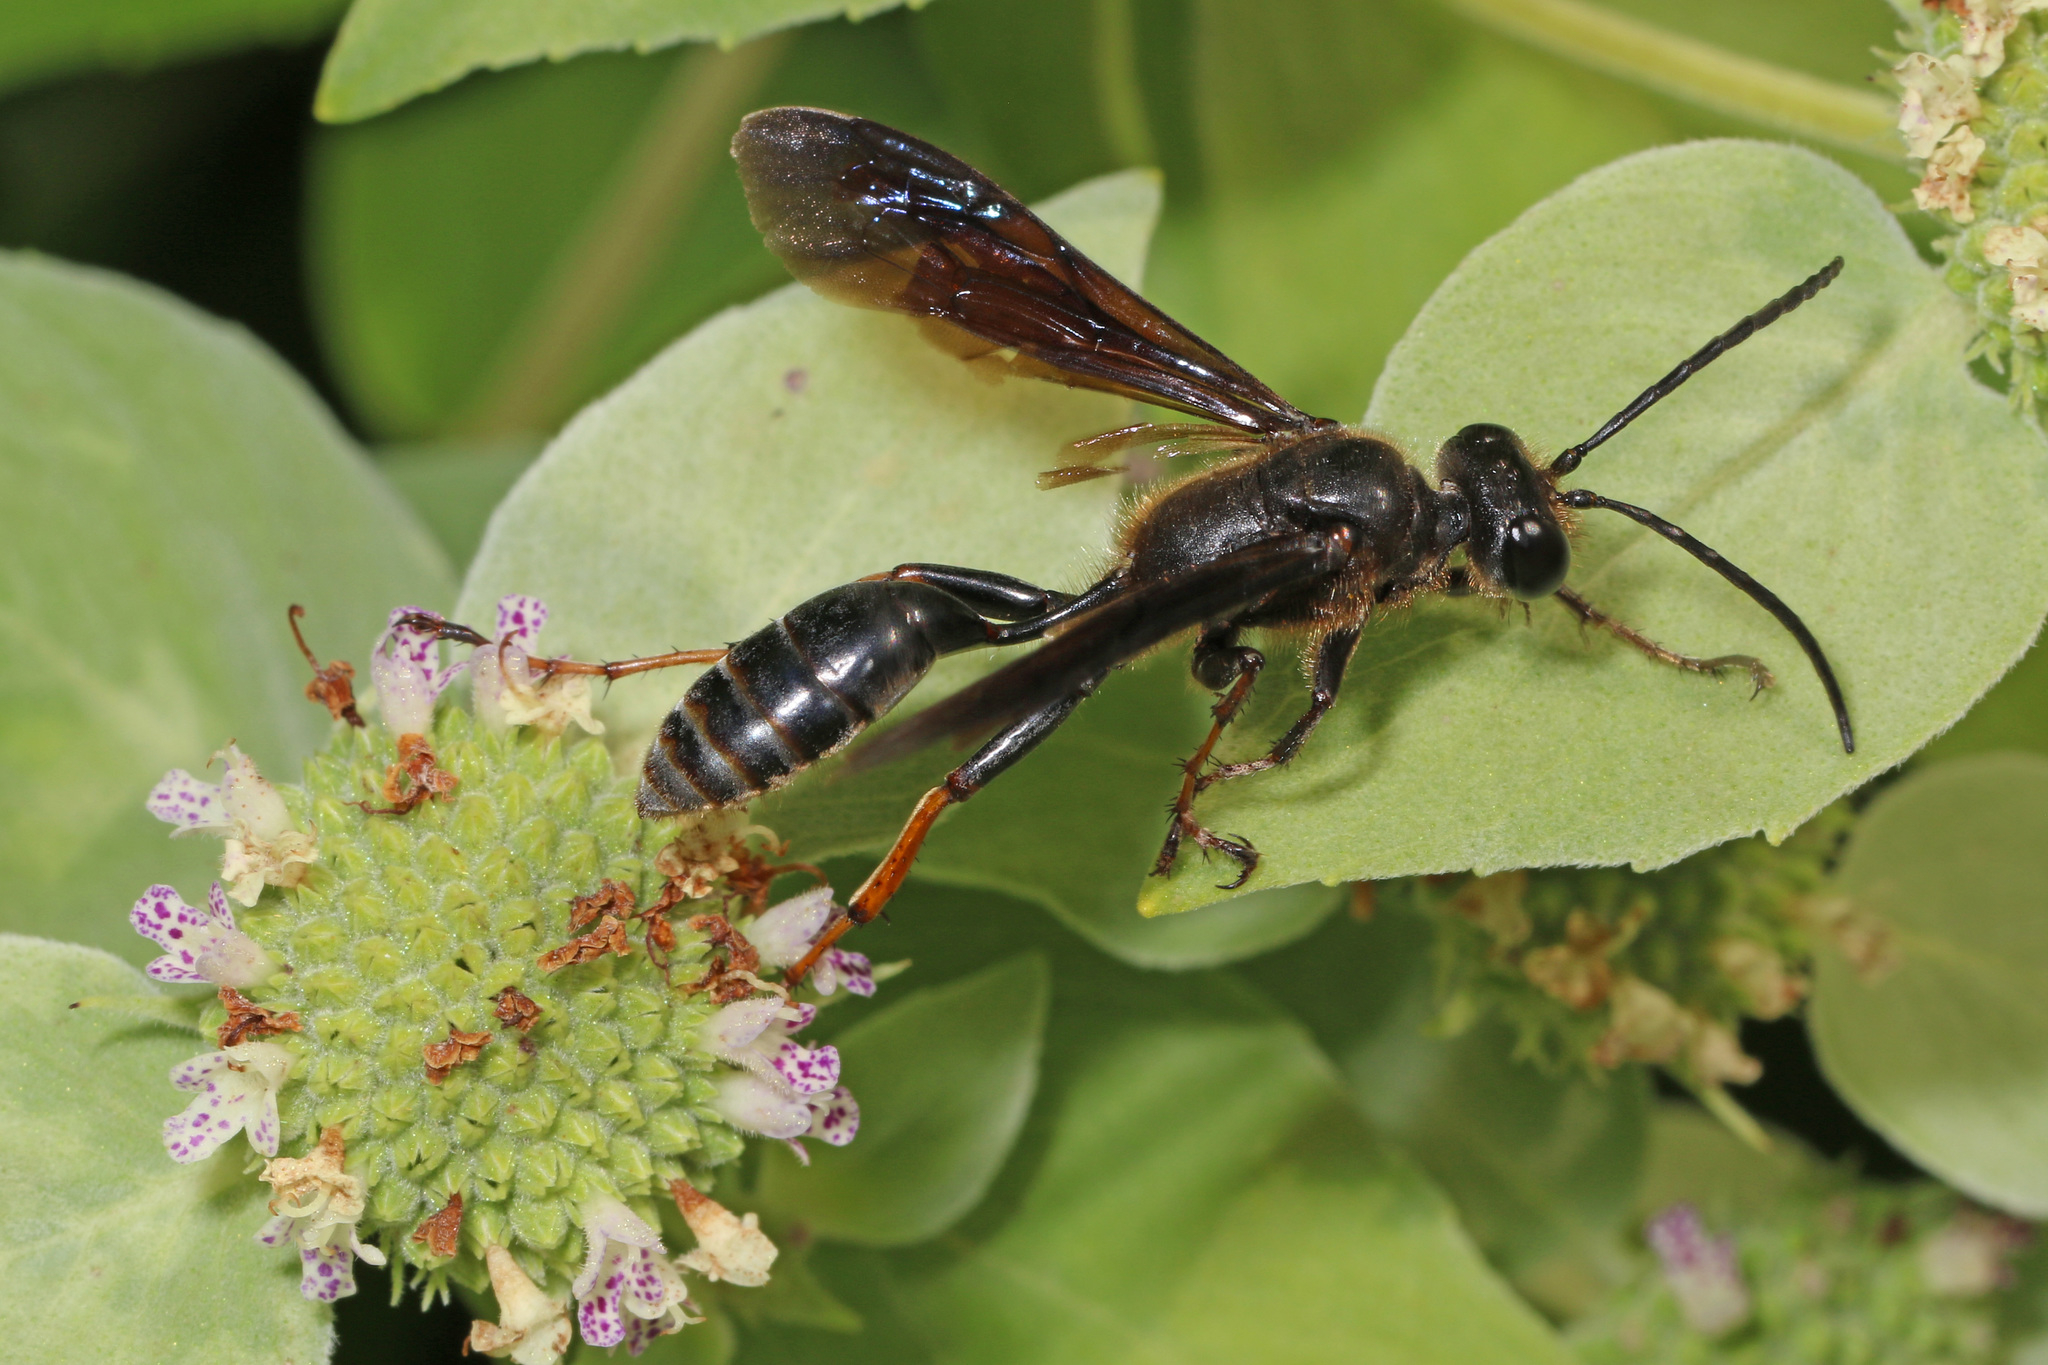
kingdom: Animalia
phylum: Arthropoda
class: Insecta
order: Hymenoptera
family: Sphecidae
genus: Isodontia
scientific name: Isodontia auripes
